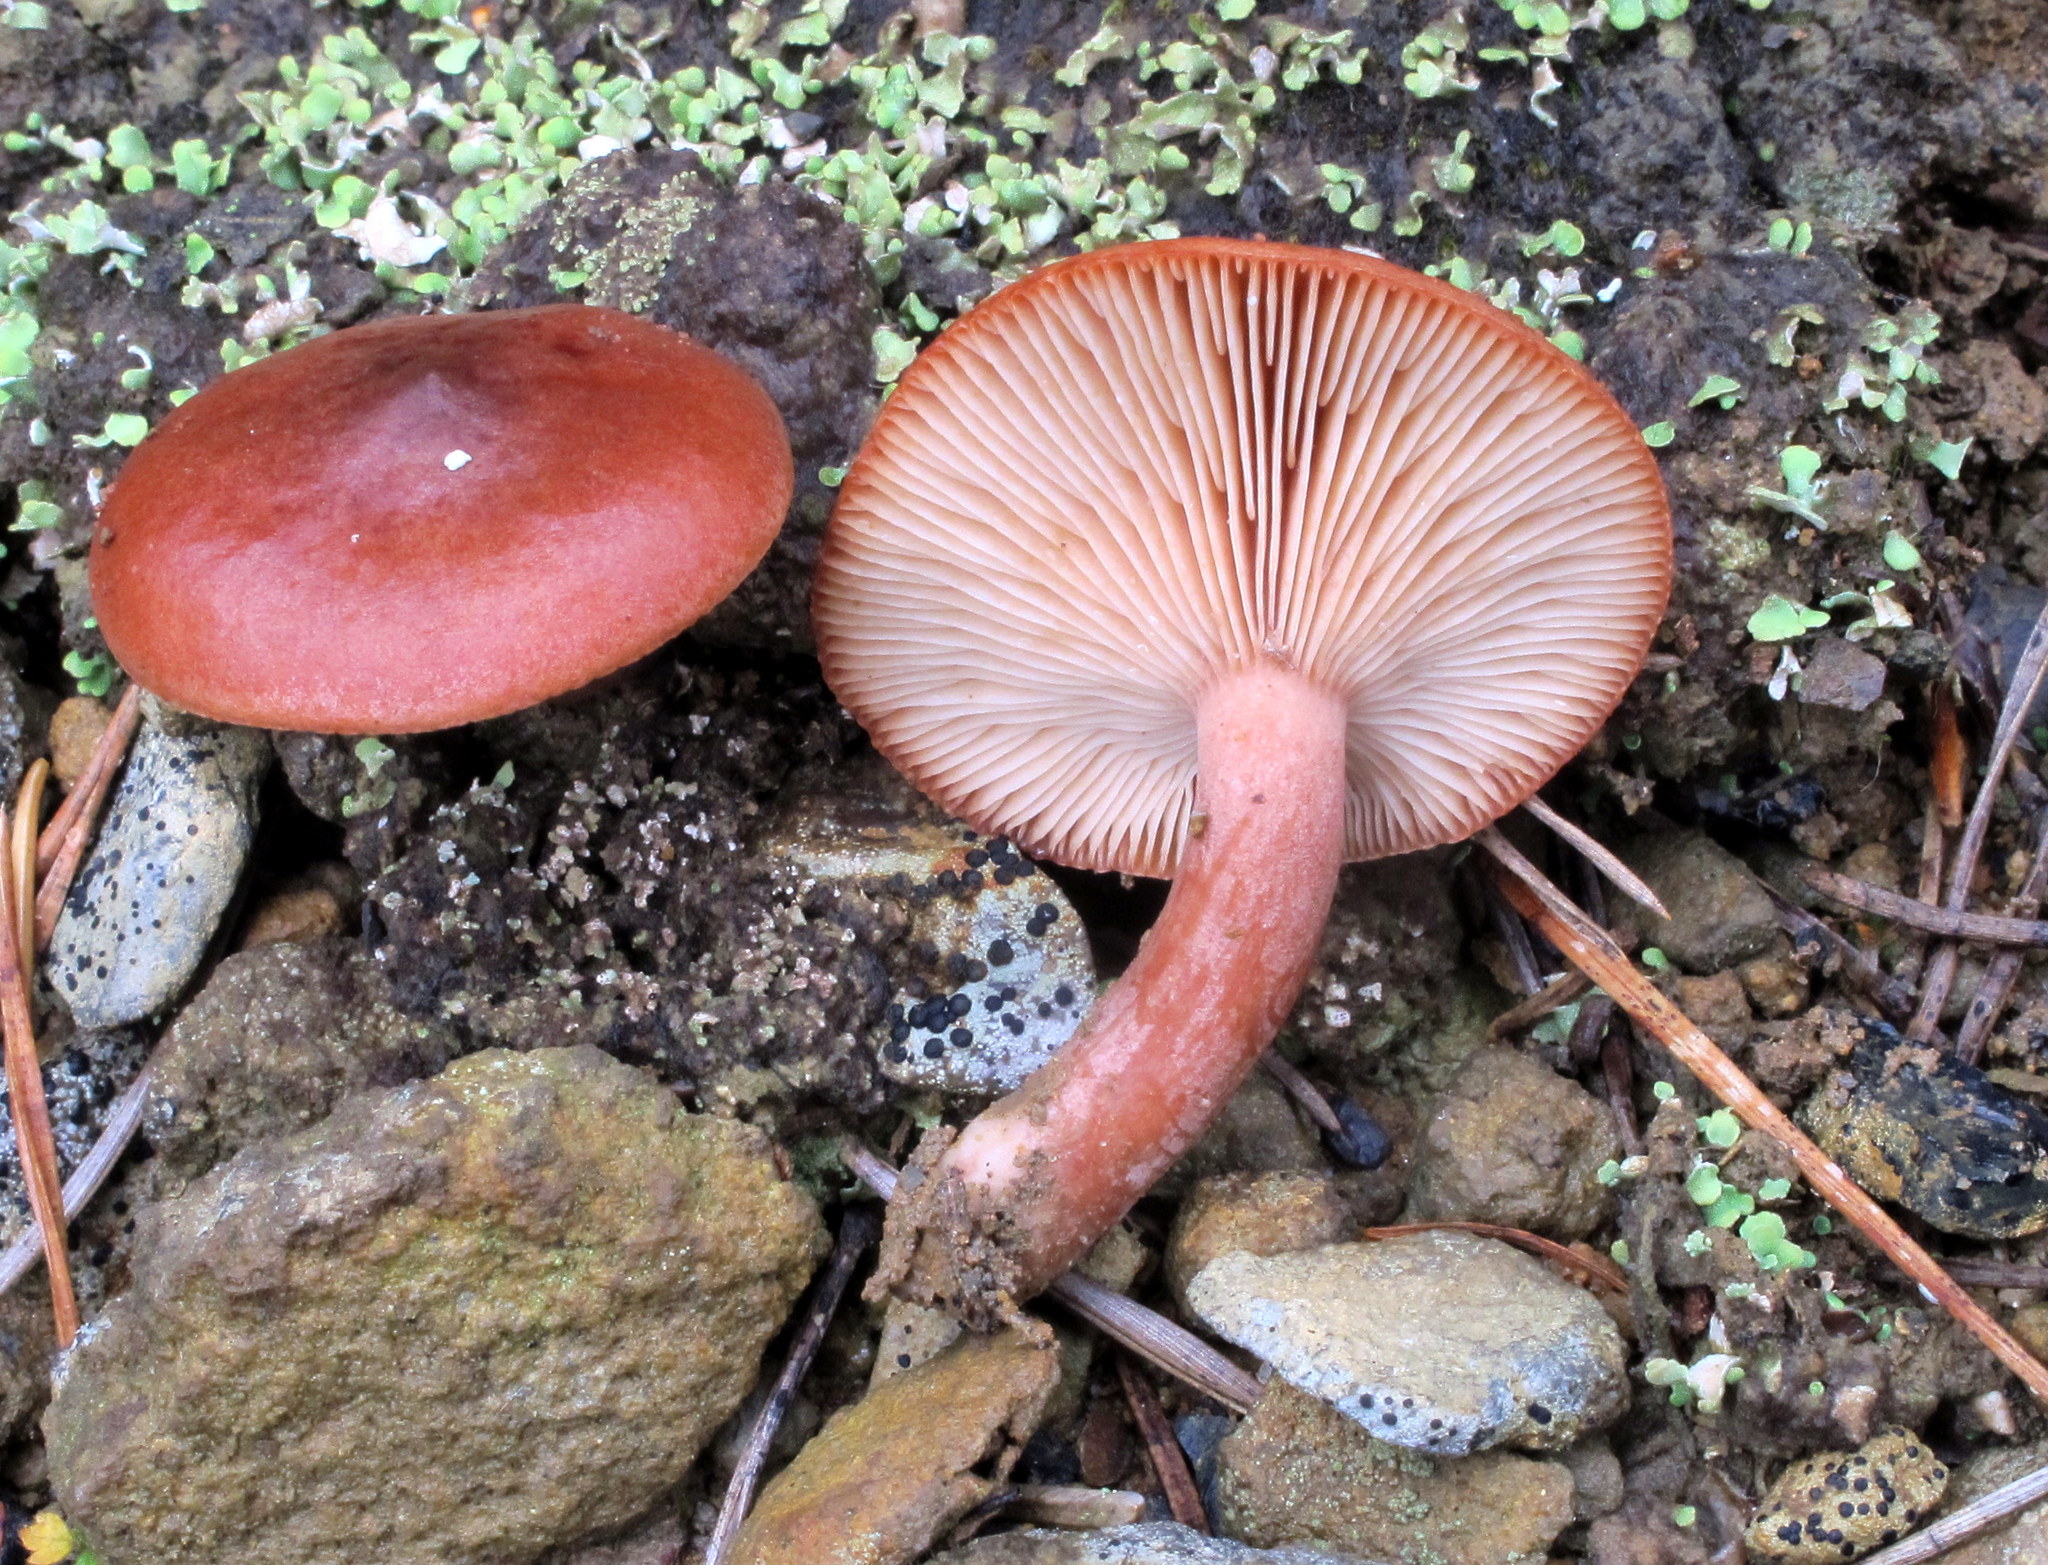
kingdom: Fungi
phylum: Basidiomycota
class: Agaricomycetes
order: Russulales
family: Russulaceae
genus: Lactarius
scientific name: Lactarius rufus
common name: Rufous milk-cap
